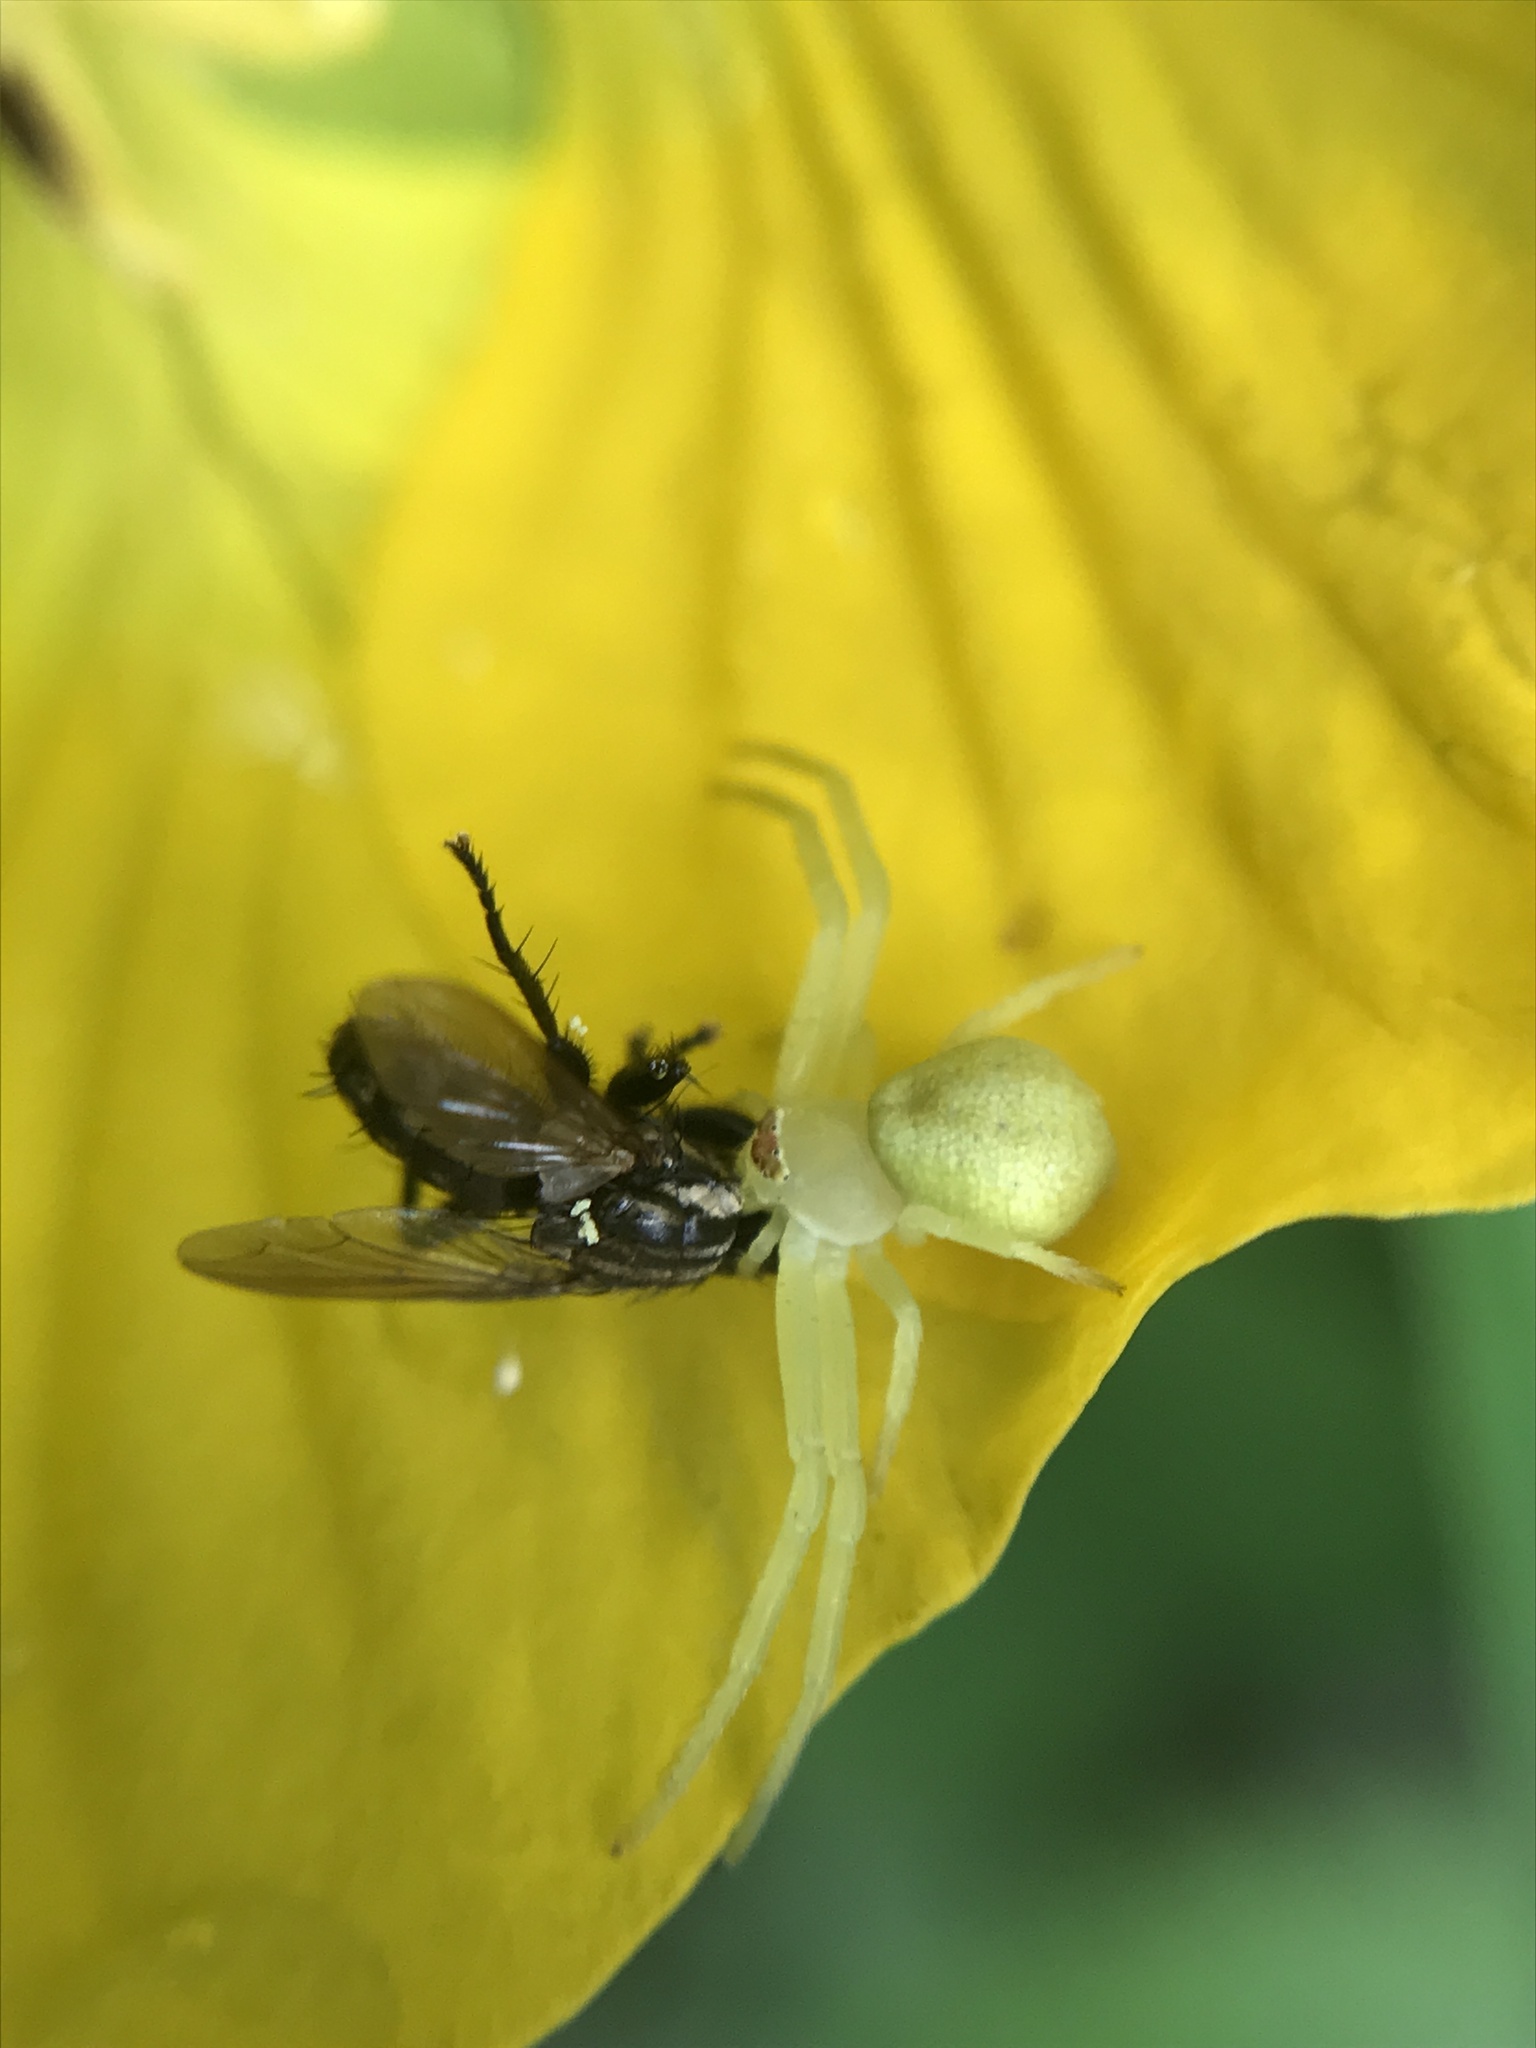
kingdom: Animalia
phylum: Arthropoda
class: Arachnida
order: Araneae
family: Thomisidae
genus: Misumenops
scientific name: Misumenops
